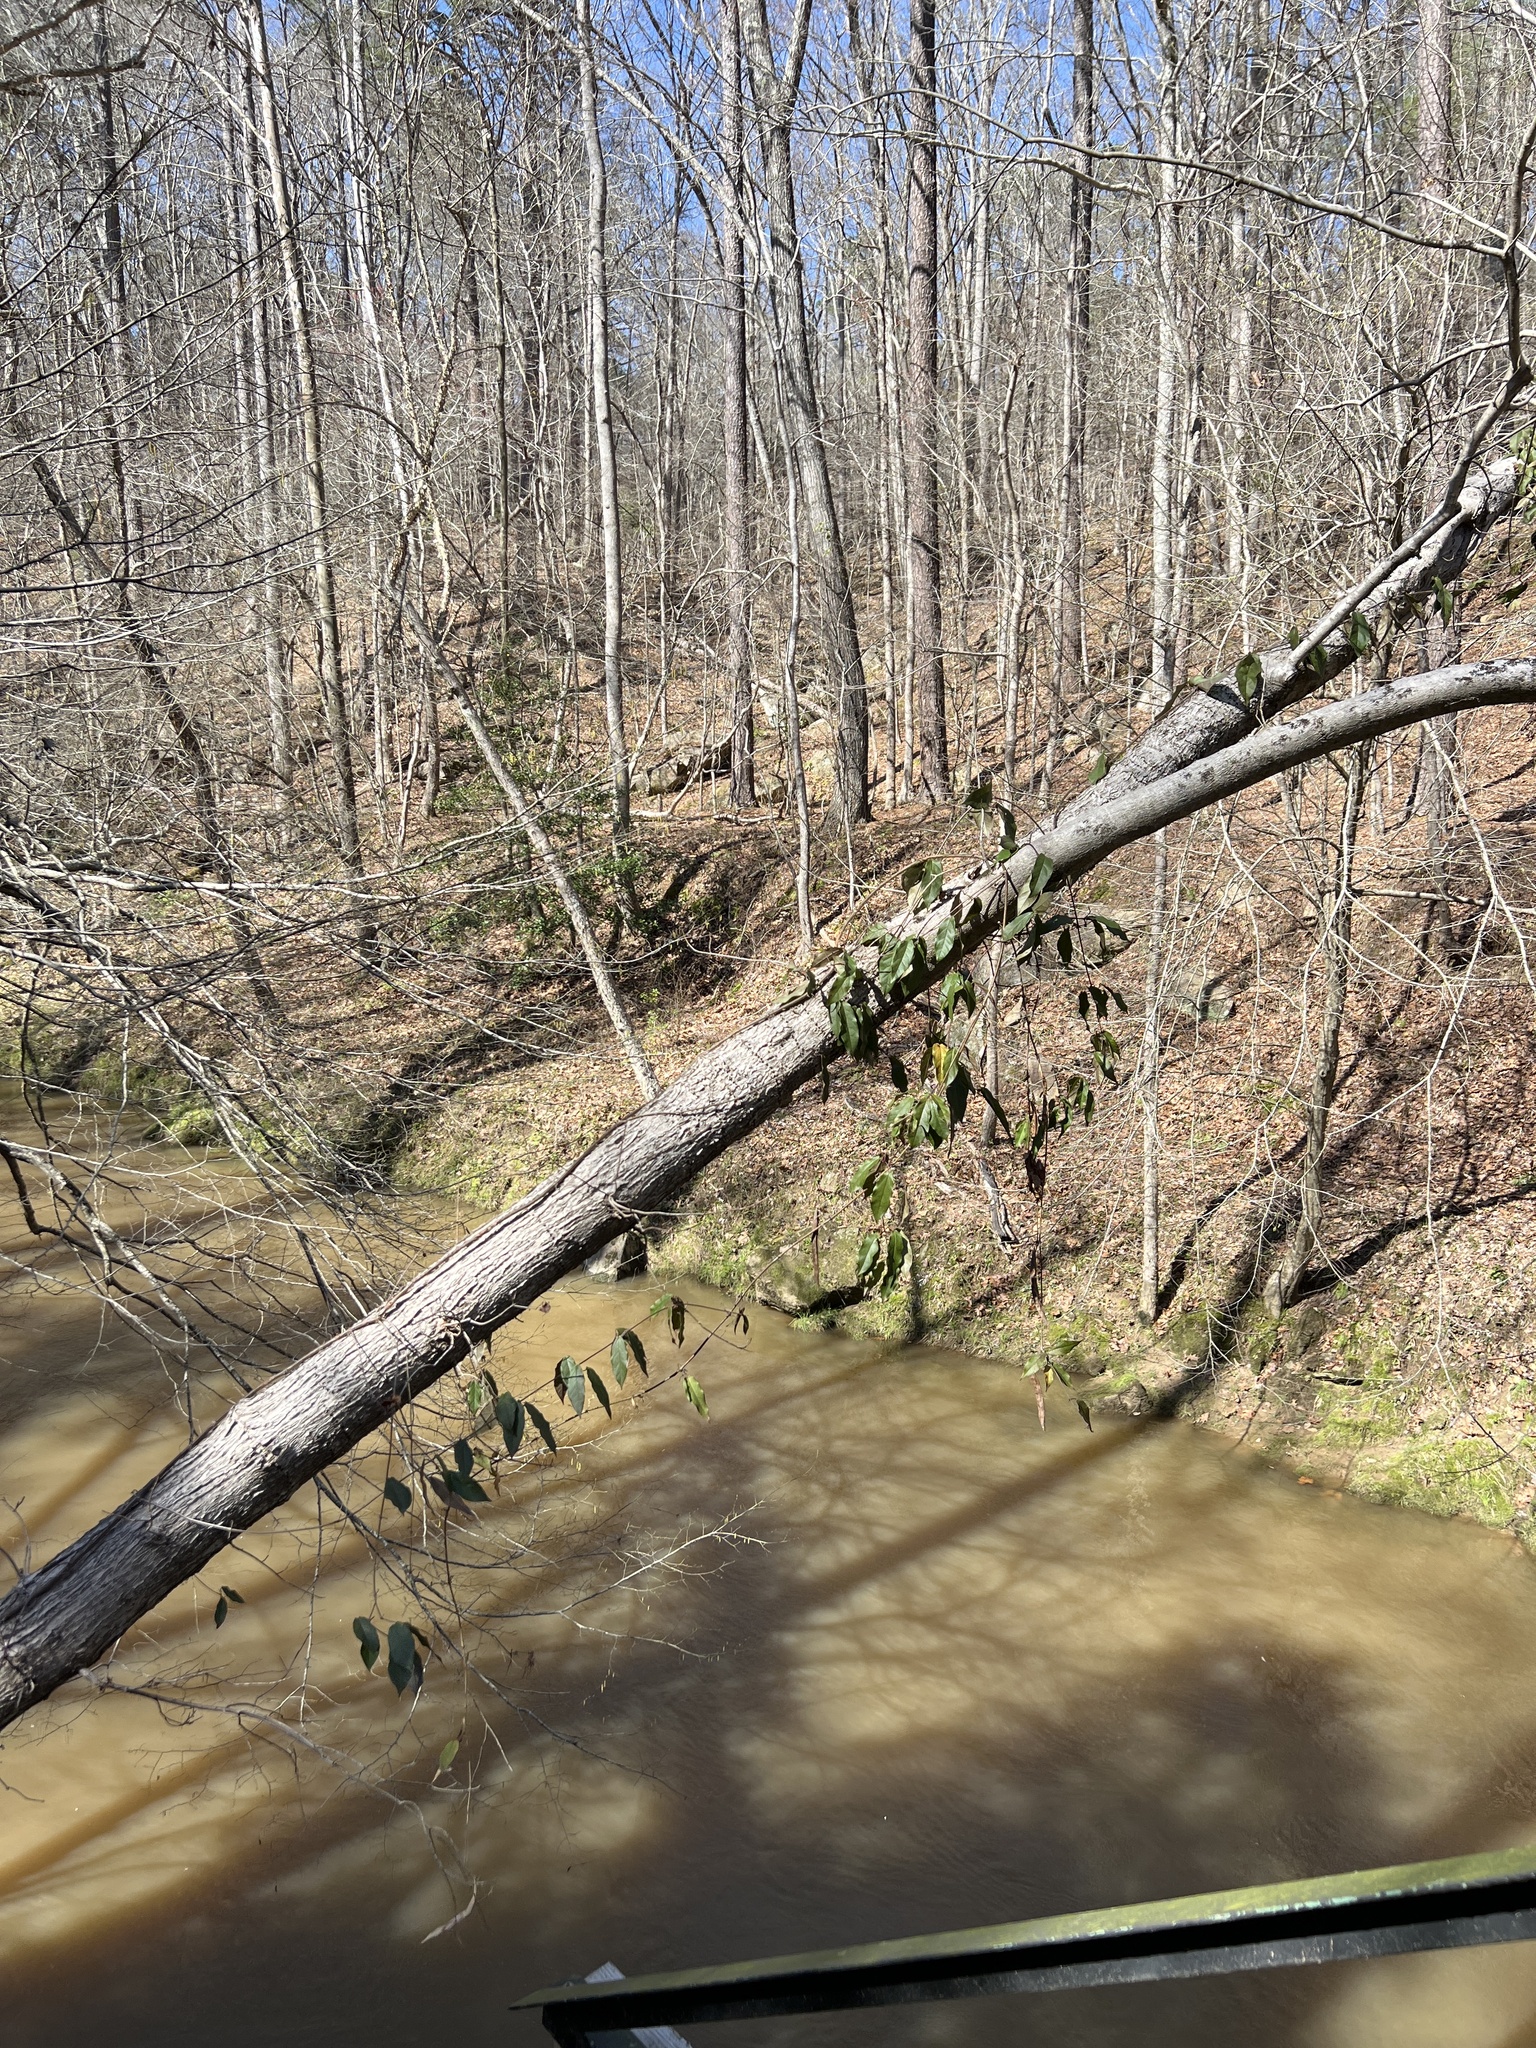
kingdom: Plantae
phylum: Tracheophyta
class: Magnoliopsida
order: Lamiales
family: Bignoniaceae
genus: Bignonia
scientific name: Bignonia capreolata
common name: Crossvine
